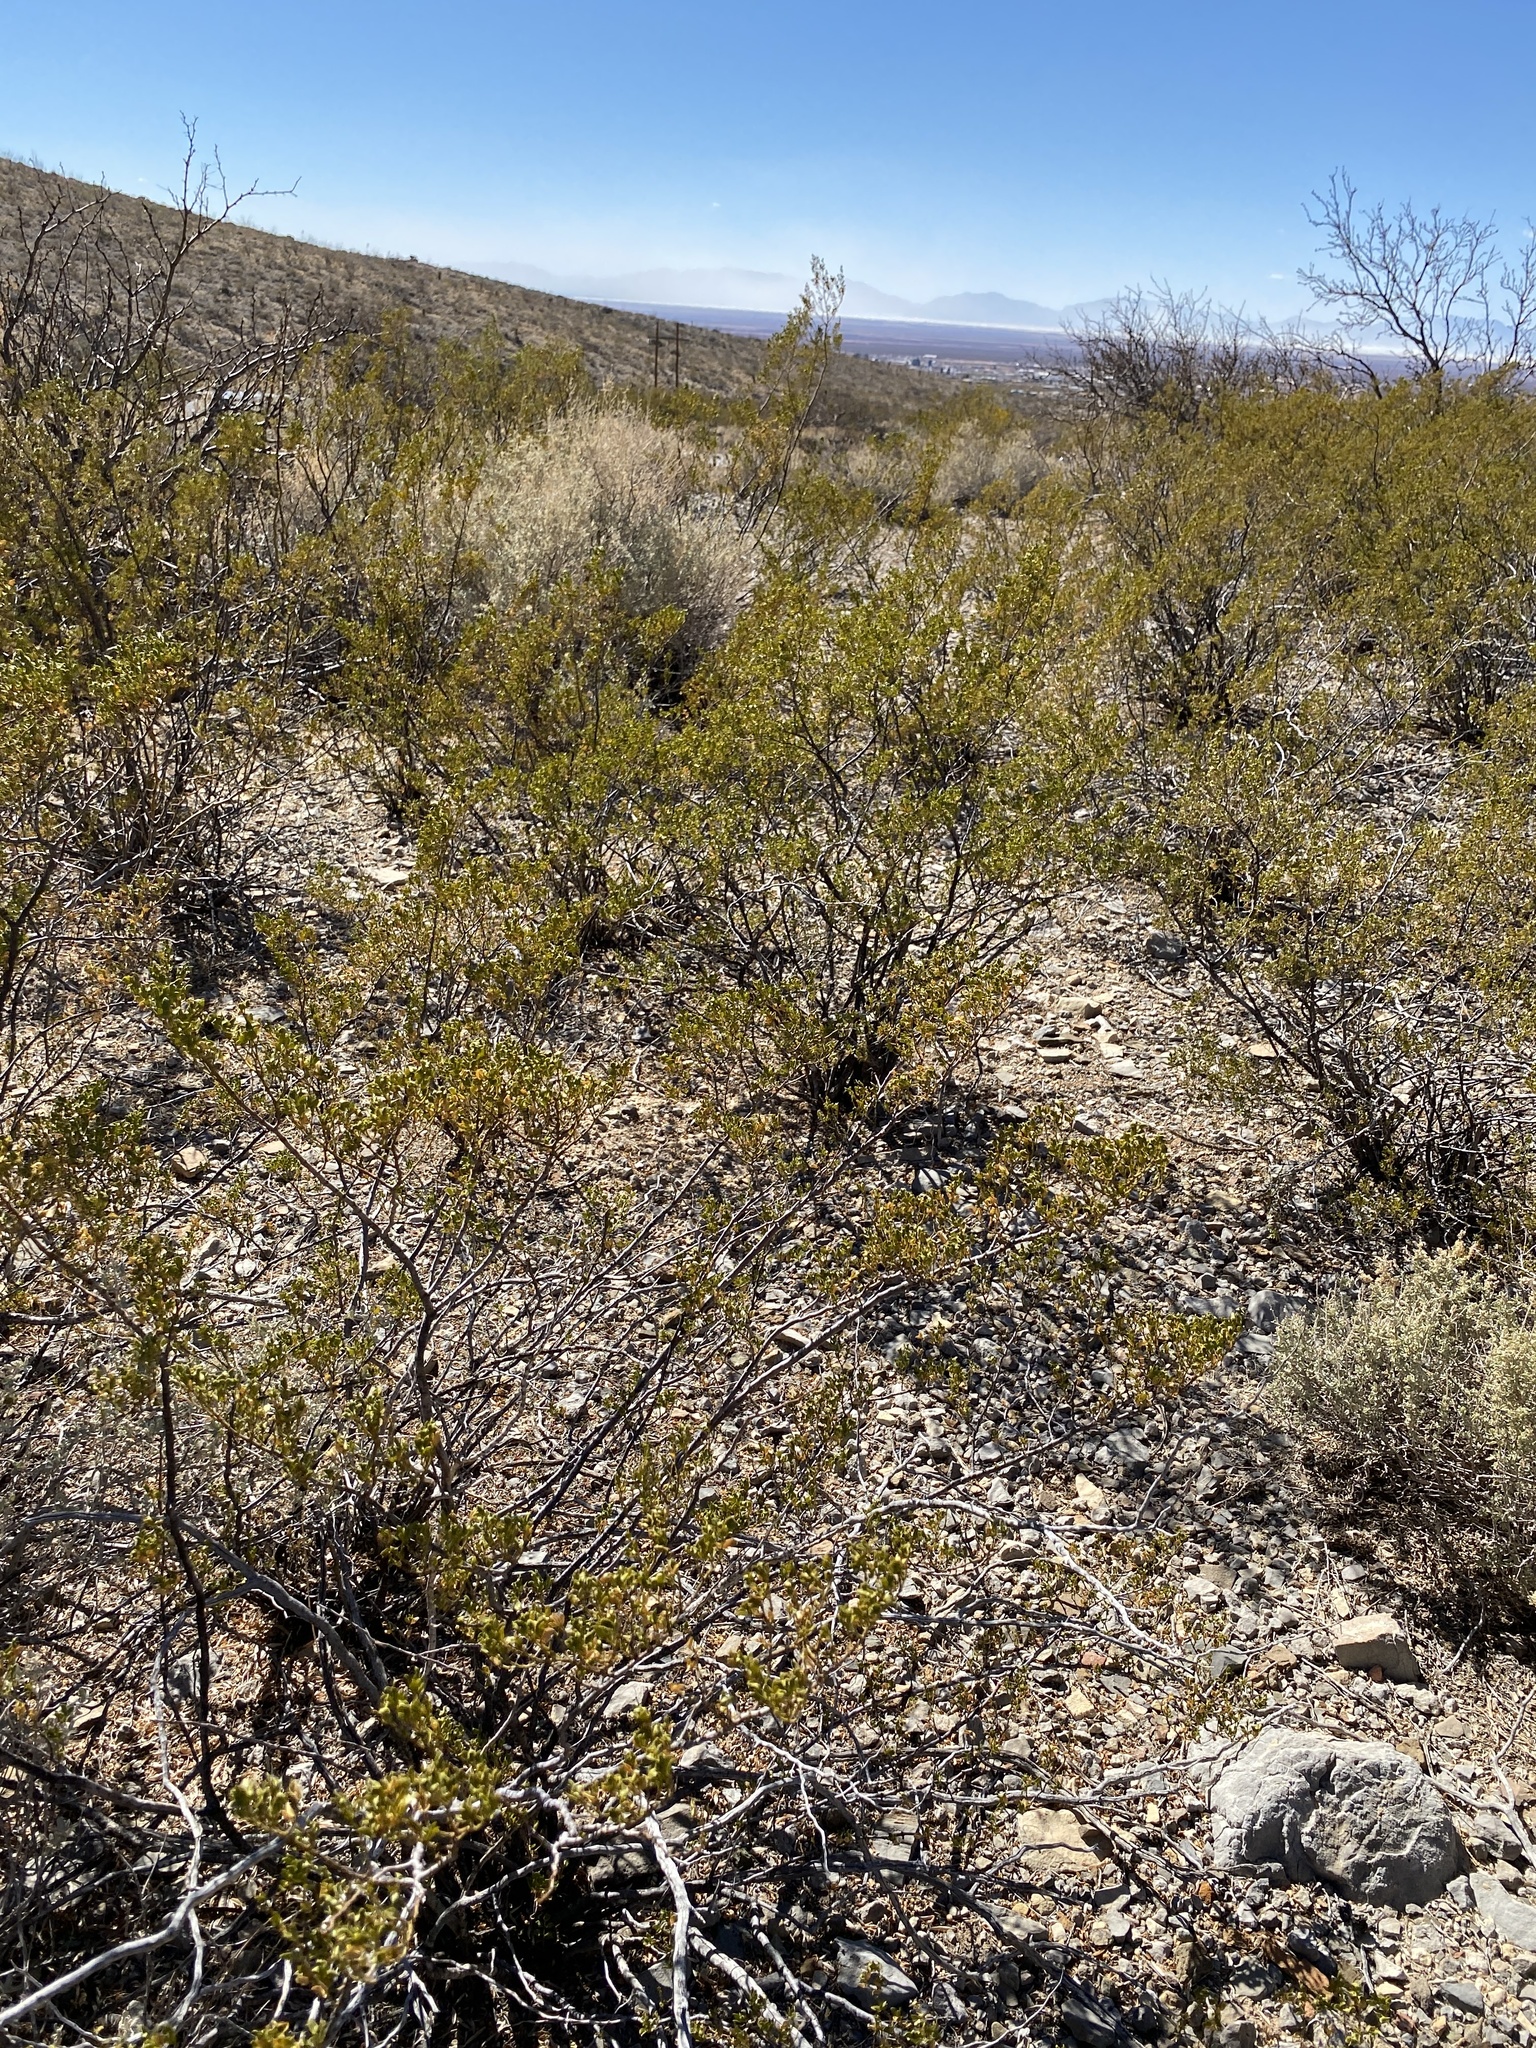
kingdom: Plantae
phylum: Tracheophyta
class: Magnoliopsida
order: Zygophyllales
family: Zygophyllaceae
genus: Larrea
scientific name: Larrea tridentata
